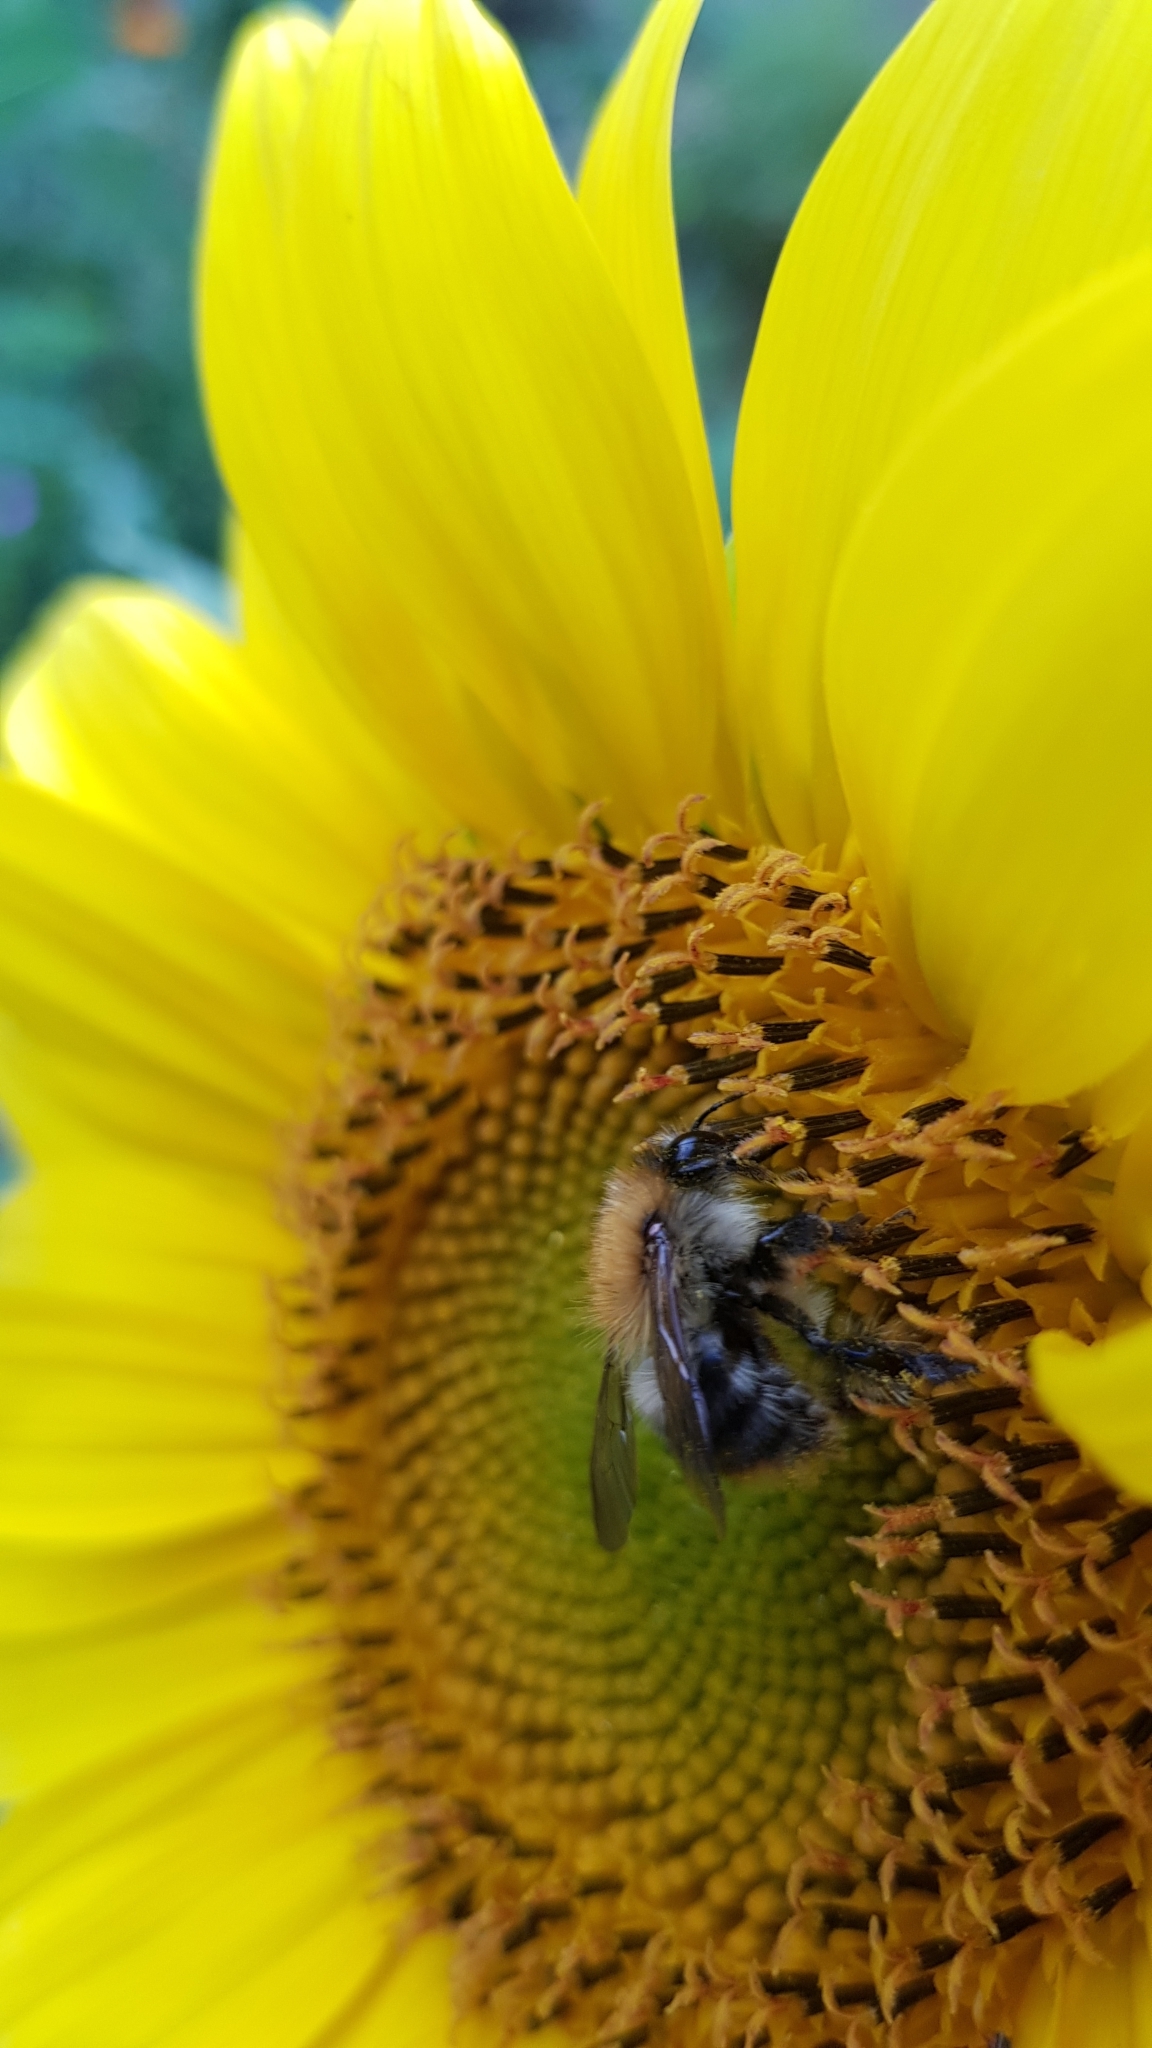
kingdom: Animalia
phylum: Arthropoda
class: Insecta
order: Hymenoptera
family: Apidae
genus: Bombus
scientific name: Bombus pascuorum
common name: Common carder bee
